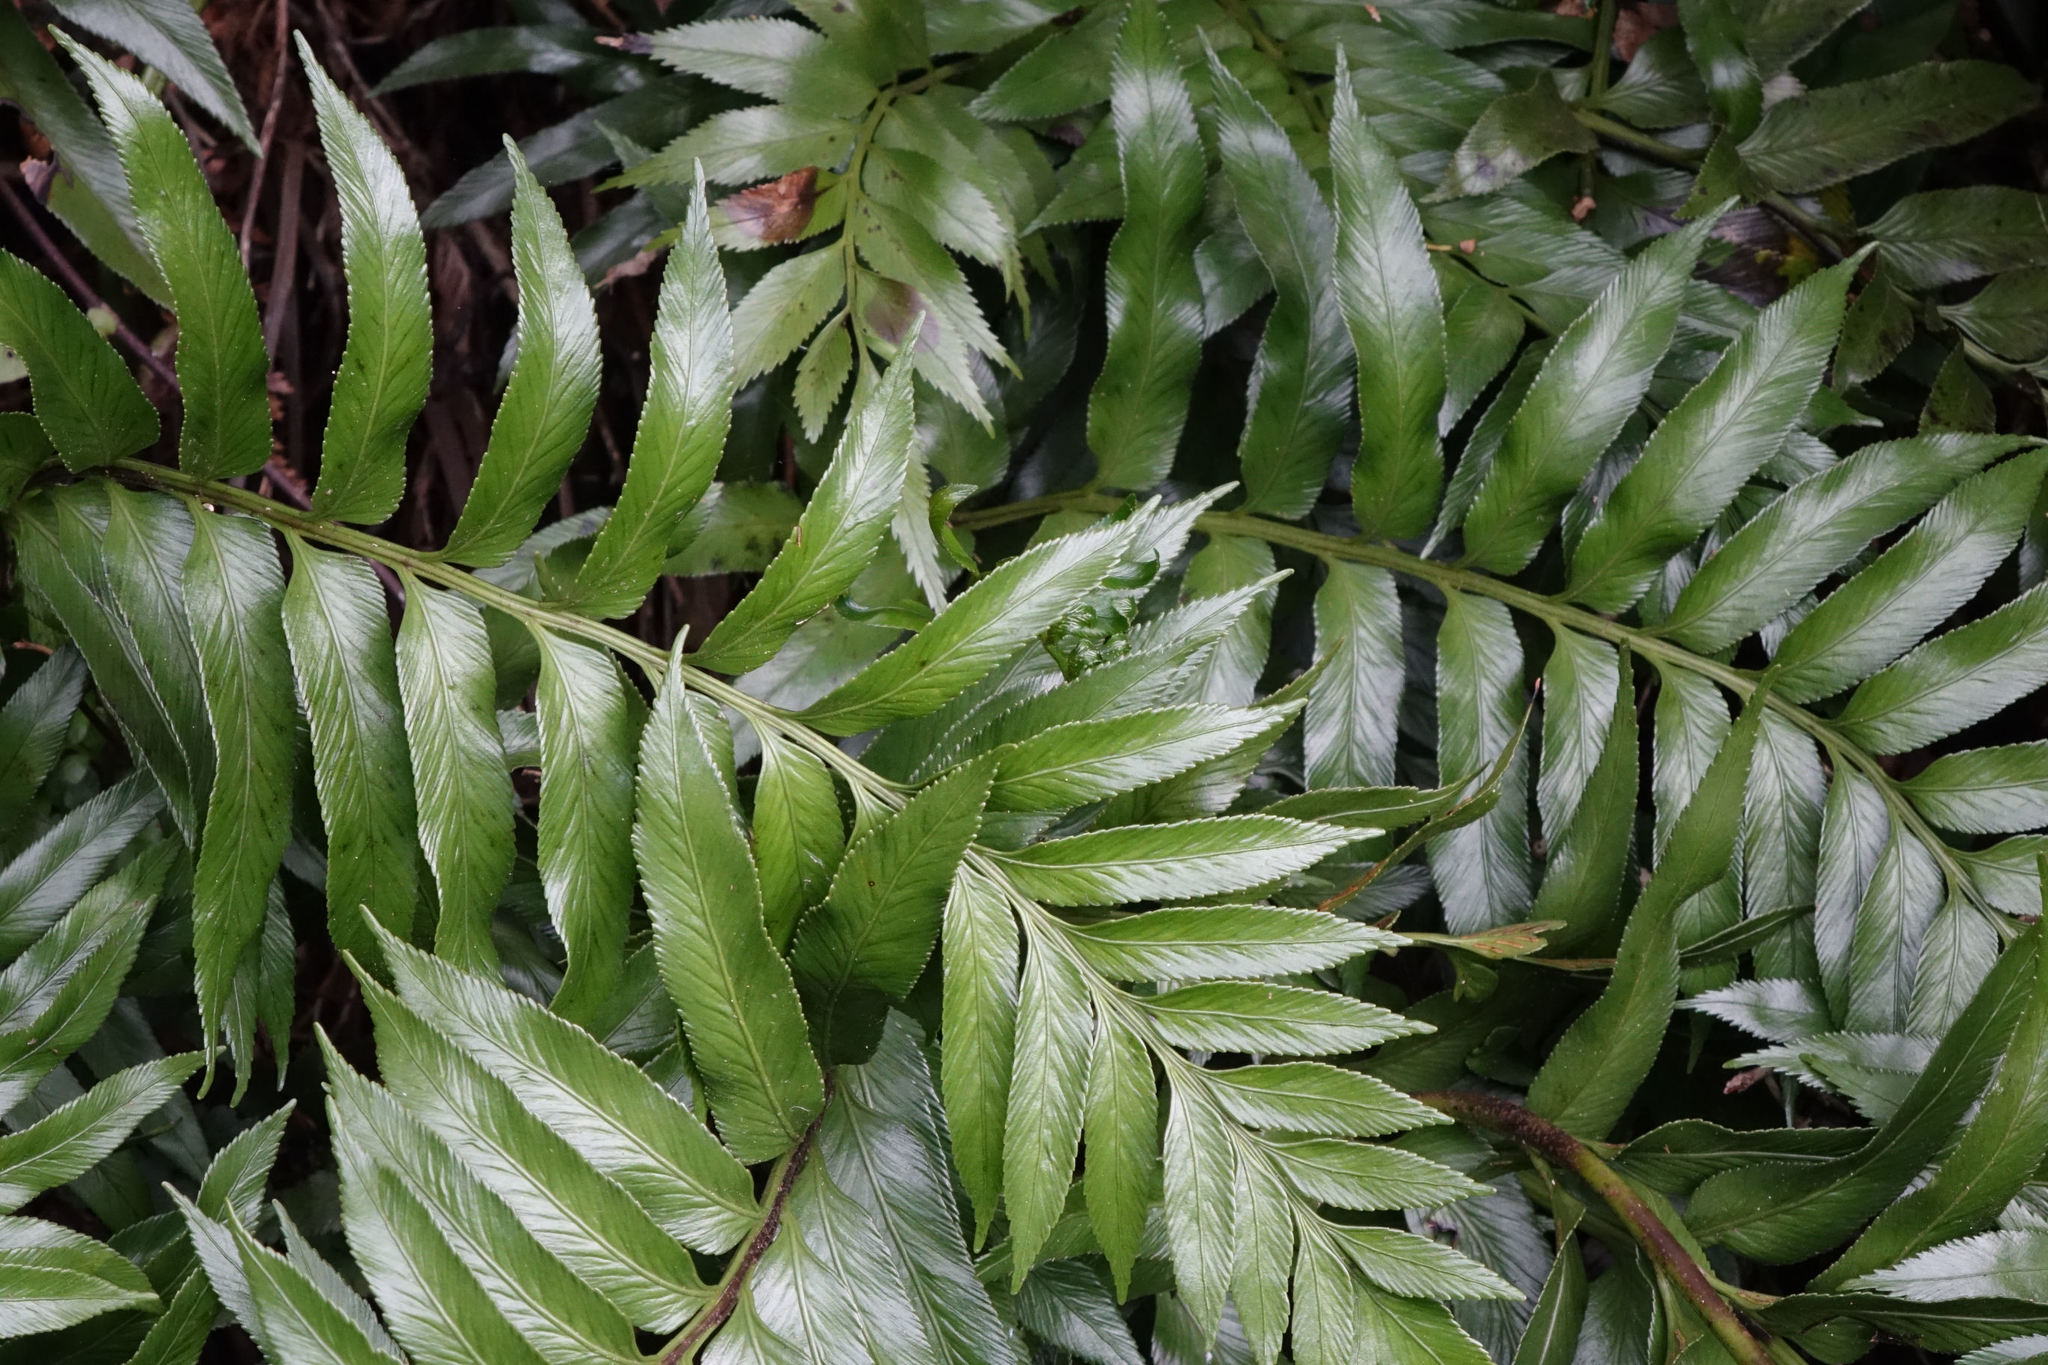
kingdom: Plantae
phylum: Tracheophyta
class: Polypodiopsida
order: Polypodiales
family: Aspleniaceae
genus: Asplenium
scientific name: Asplenium obtusatum
